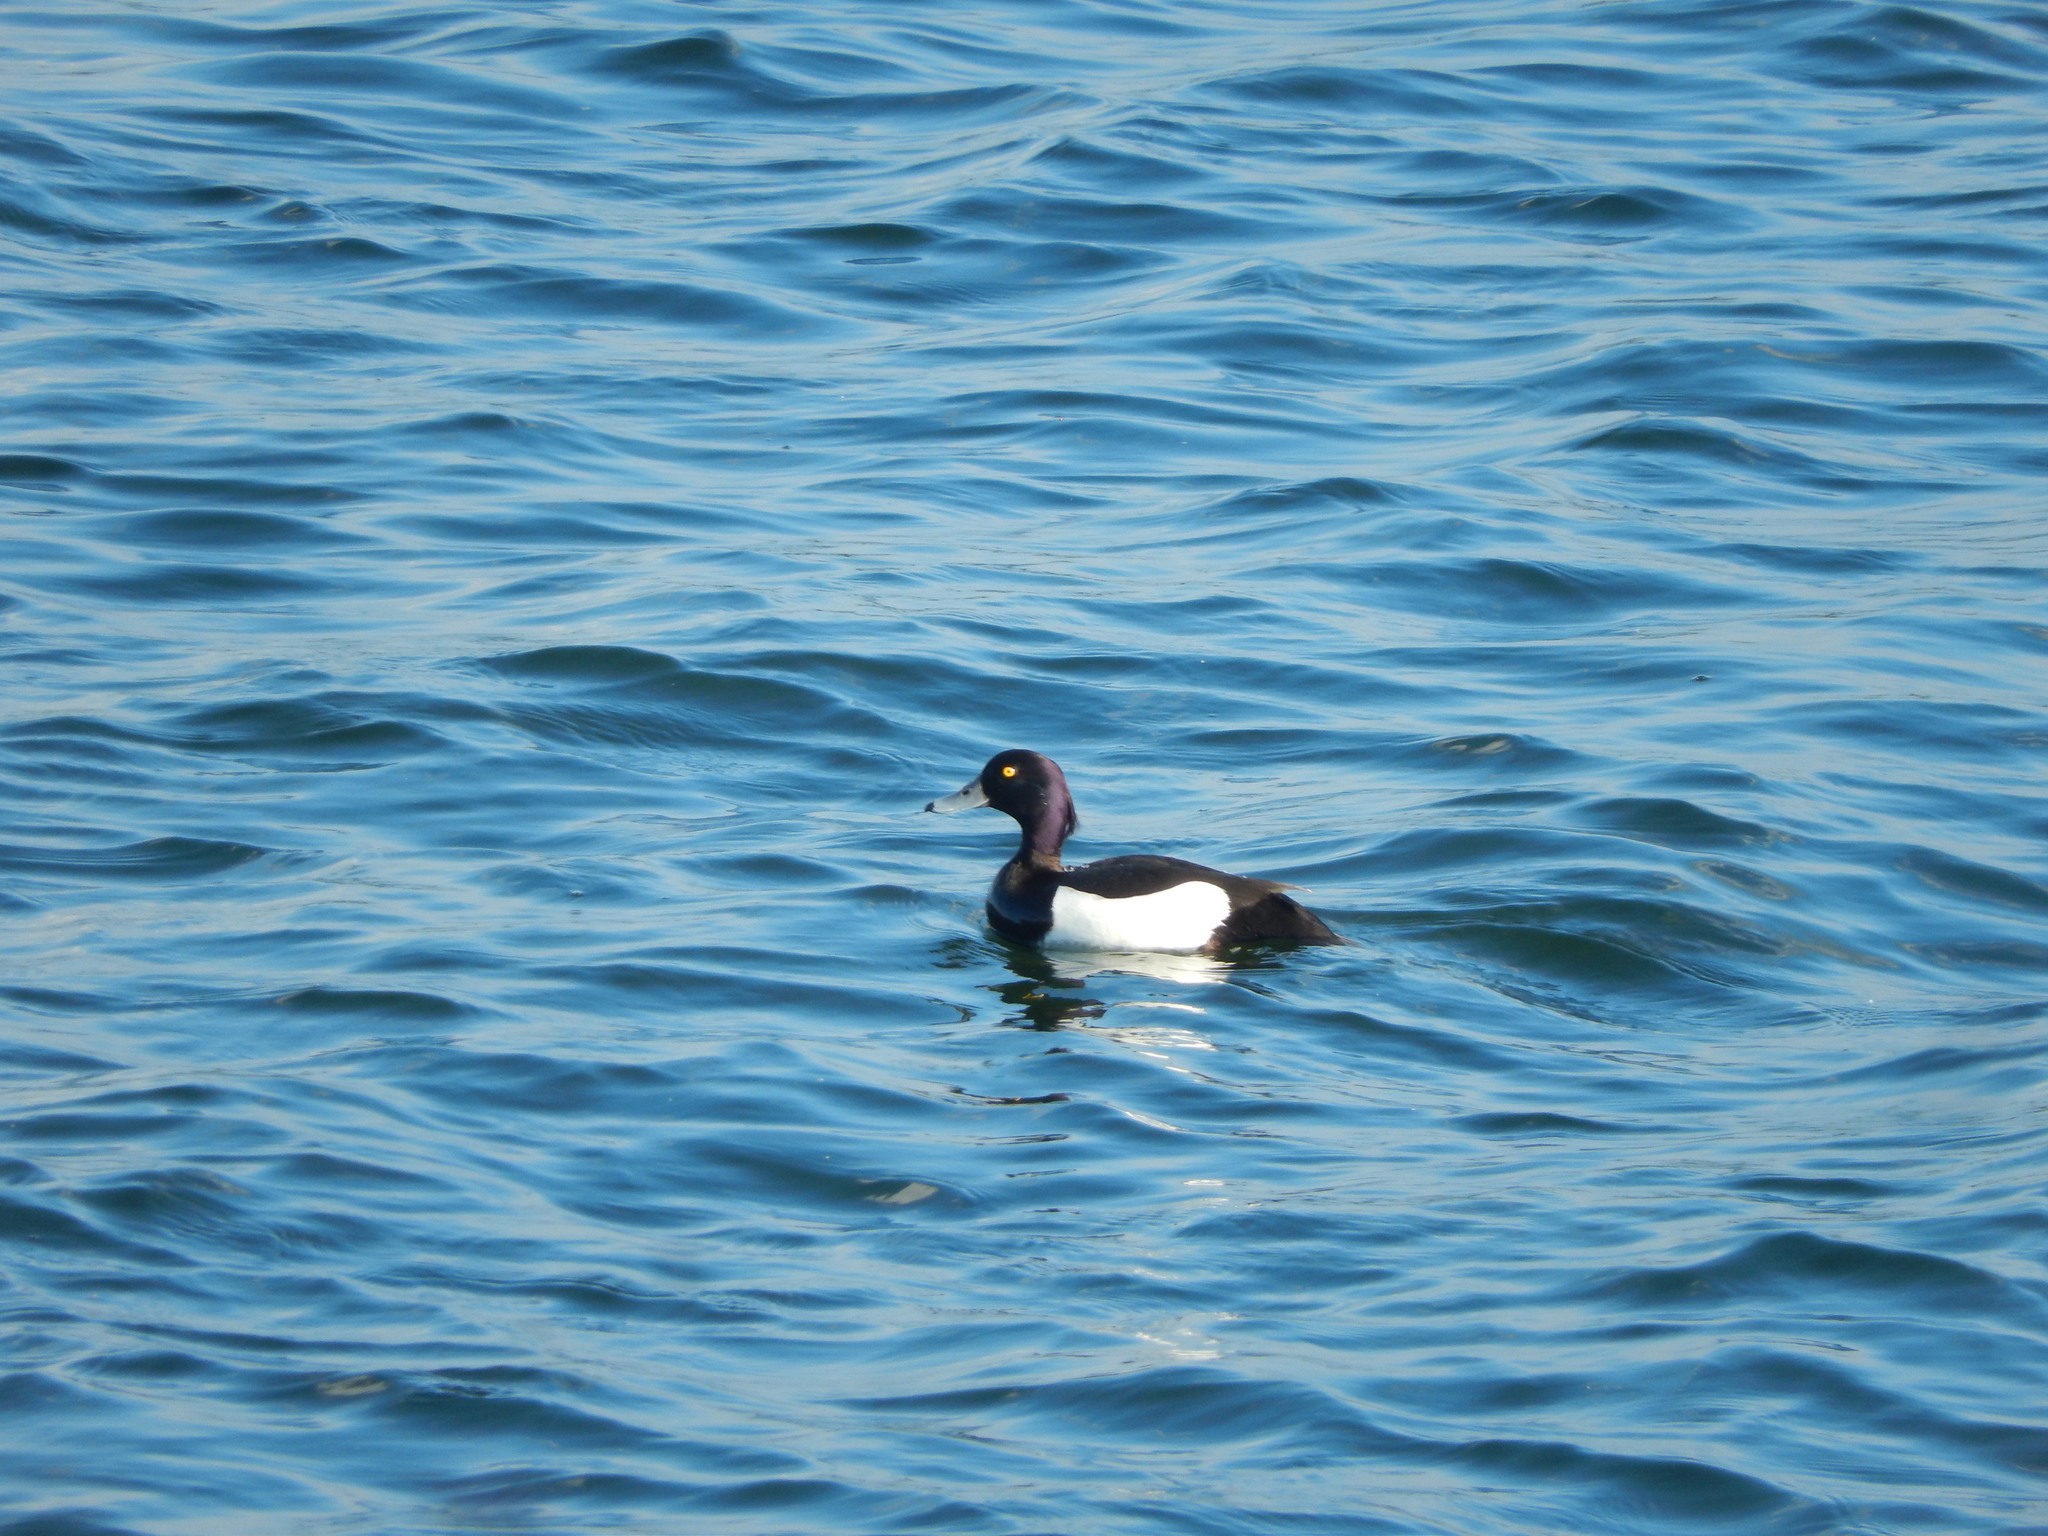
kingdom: Animalia
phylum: Chordata
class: Aves
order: Anseriformes
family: Anatidae
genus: Aythya
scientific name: Aythya fuligula
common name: Tufted duck
